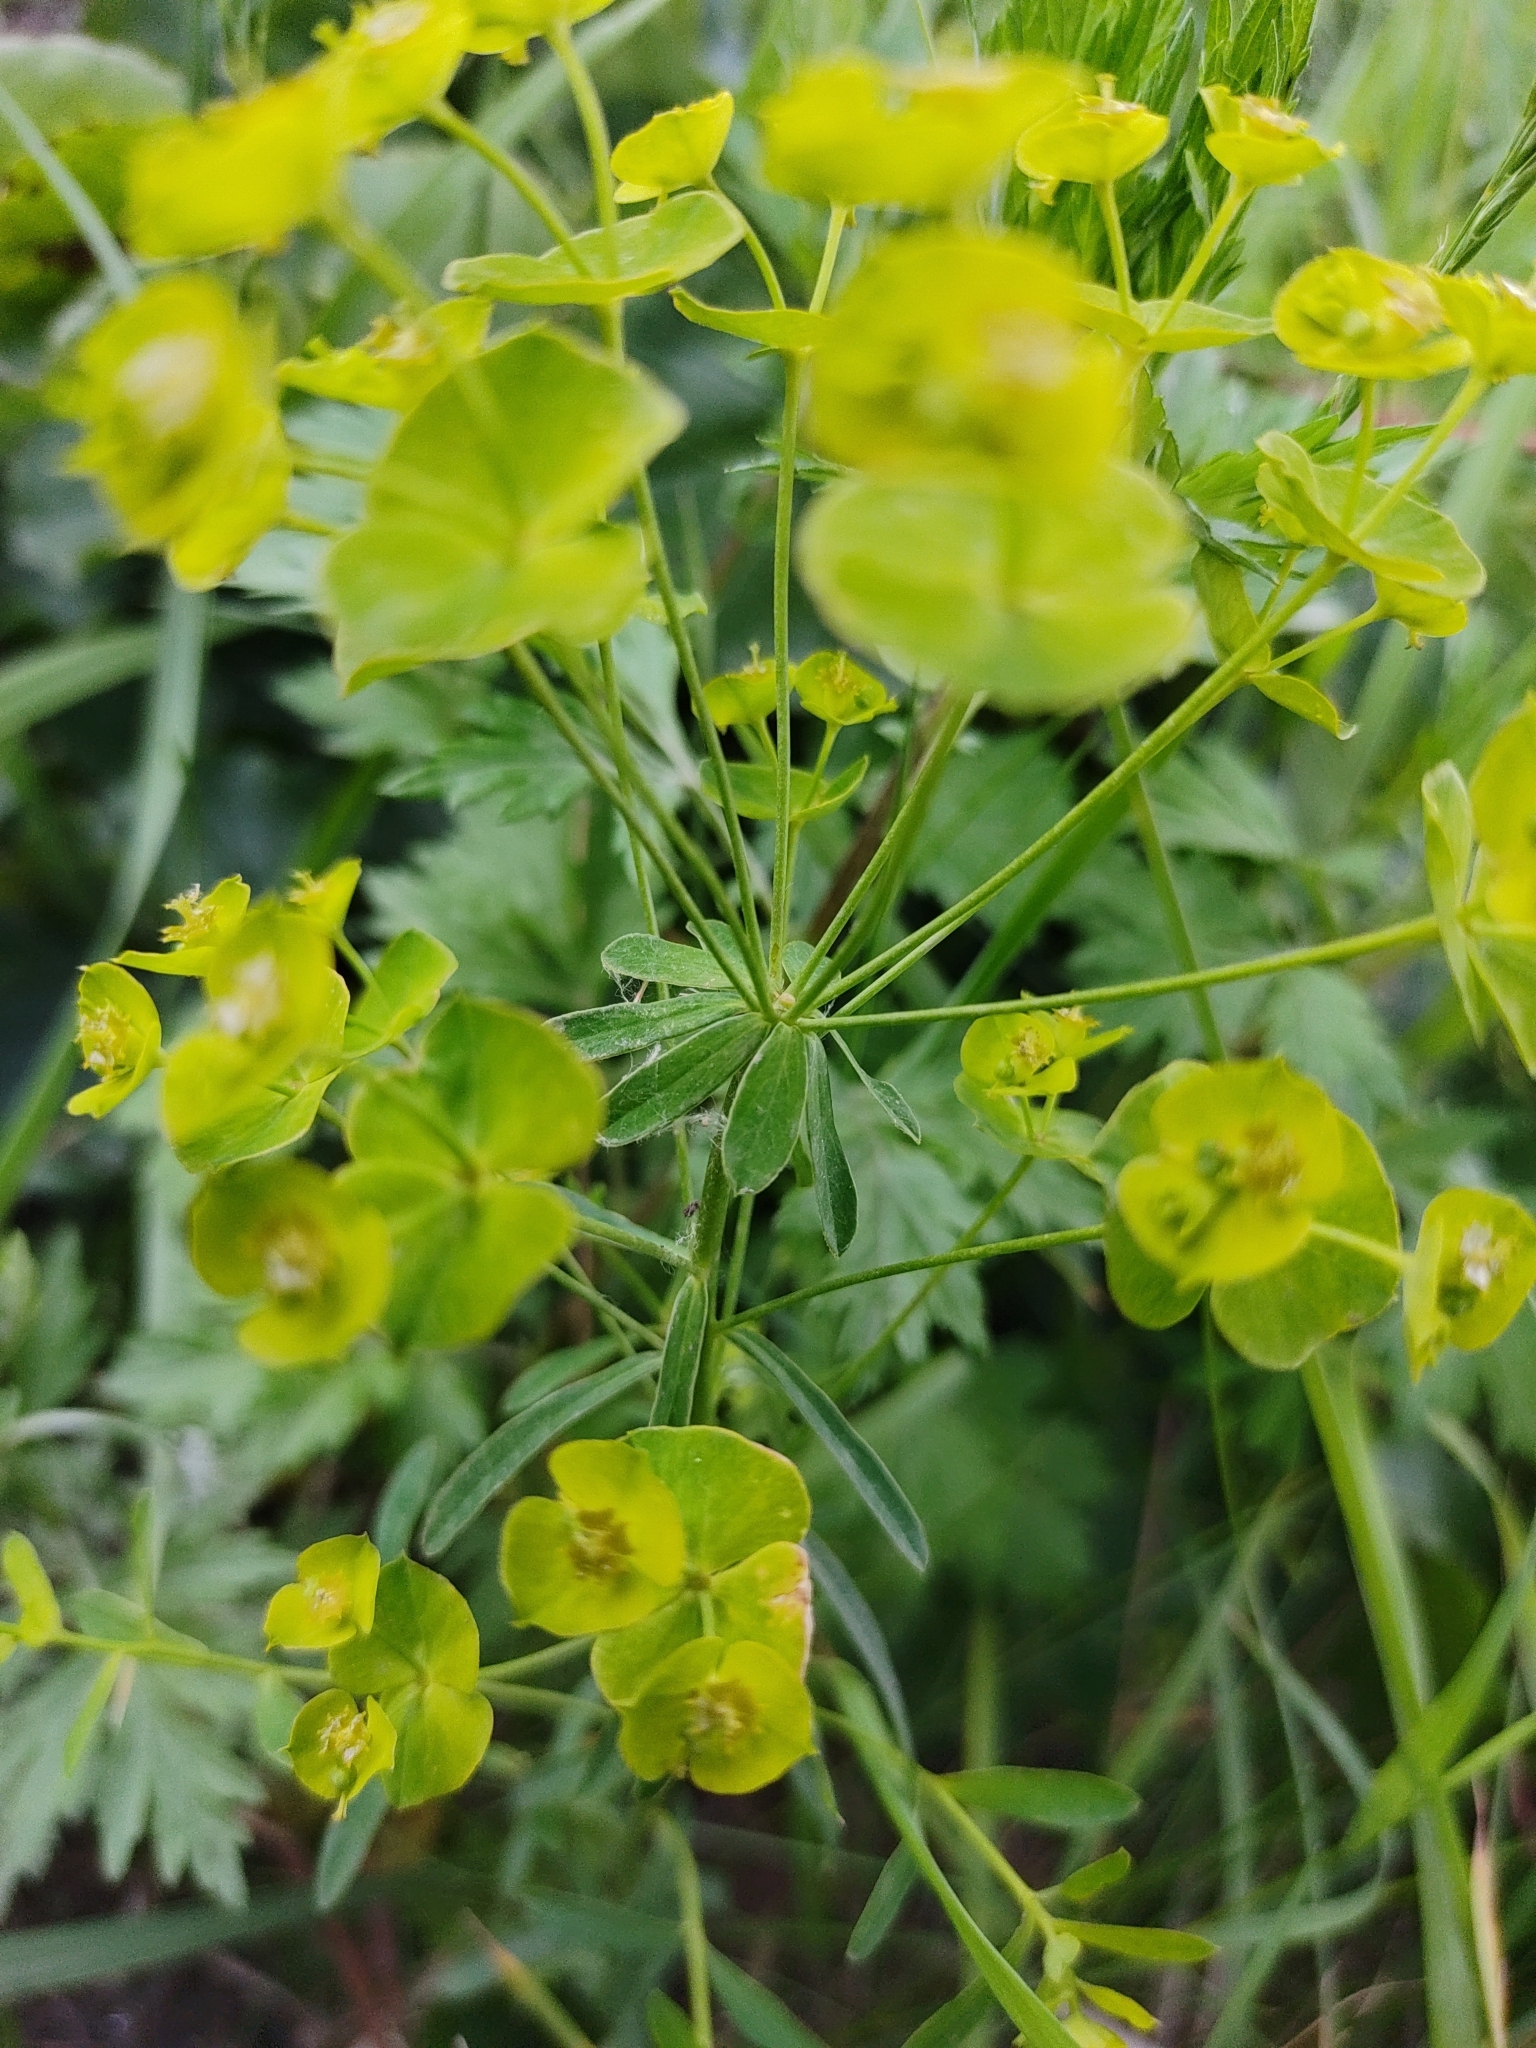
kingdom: Plantae
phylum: Tracheophyta
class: Magnoliopsida
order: Malpighiales
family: Euphorbiaceae
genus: Euphorbia
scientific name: Euphorbia esula
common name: Leafy spurge
